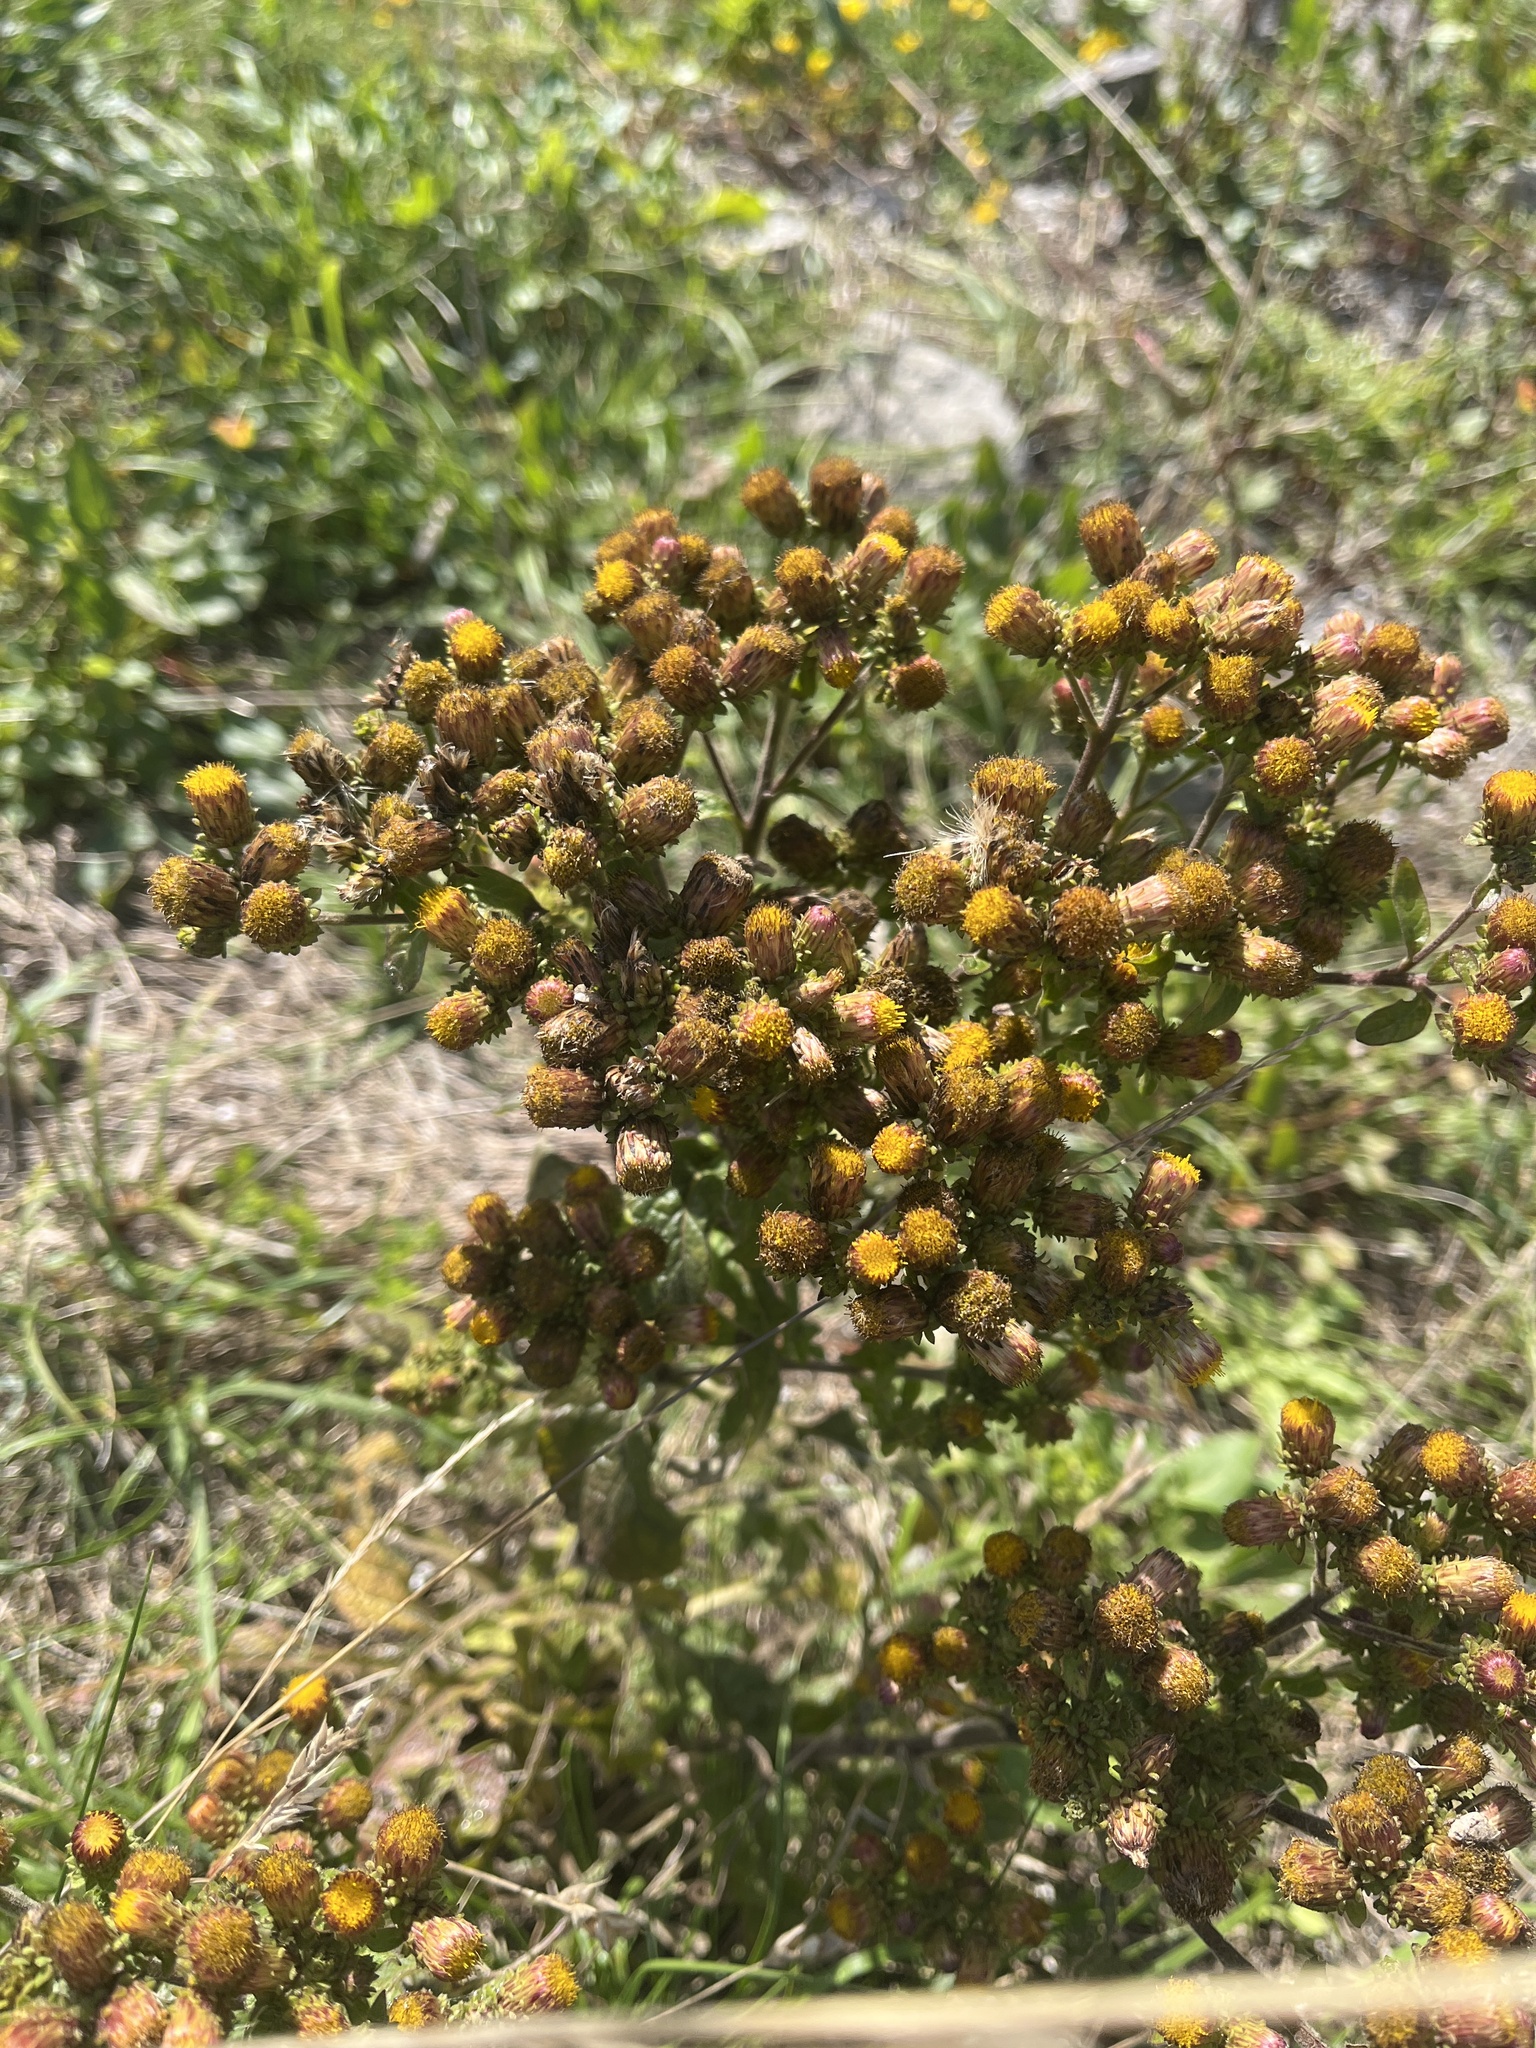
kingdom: Plantae
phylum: Tracheophyta
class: Magnoliopsida
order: Asterales
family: Asteraceae
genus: Pentanema
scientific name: Pentanema squarrosum
